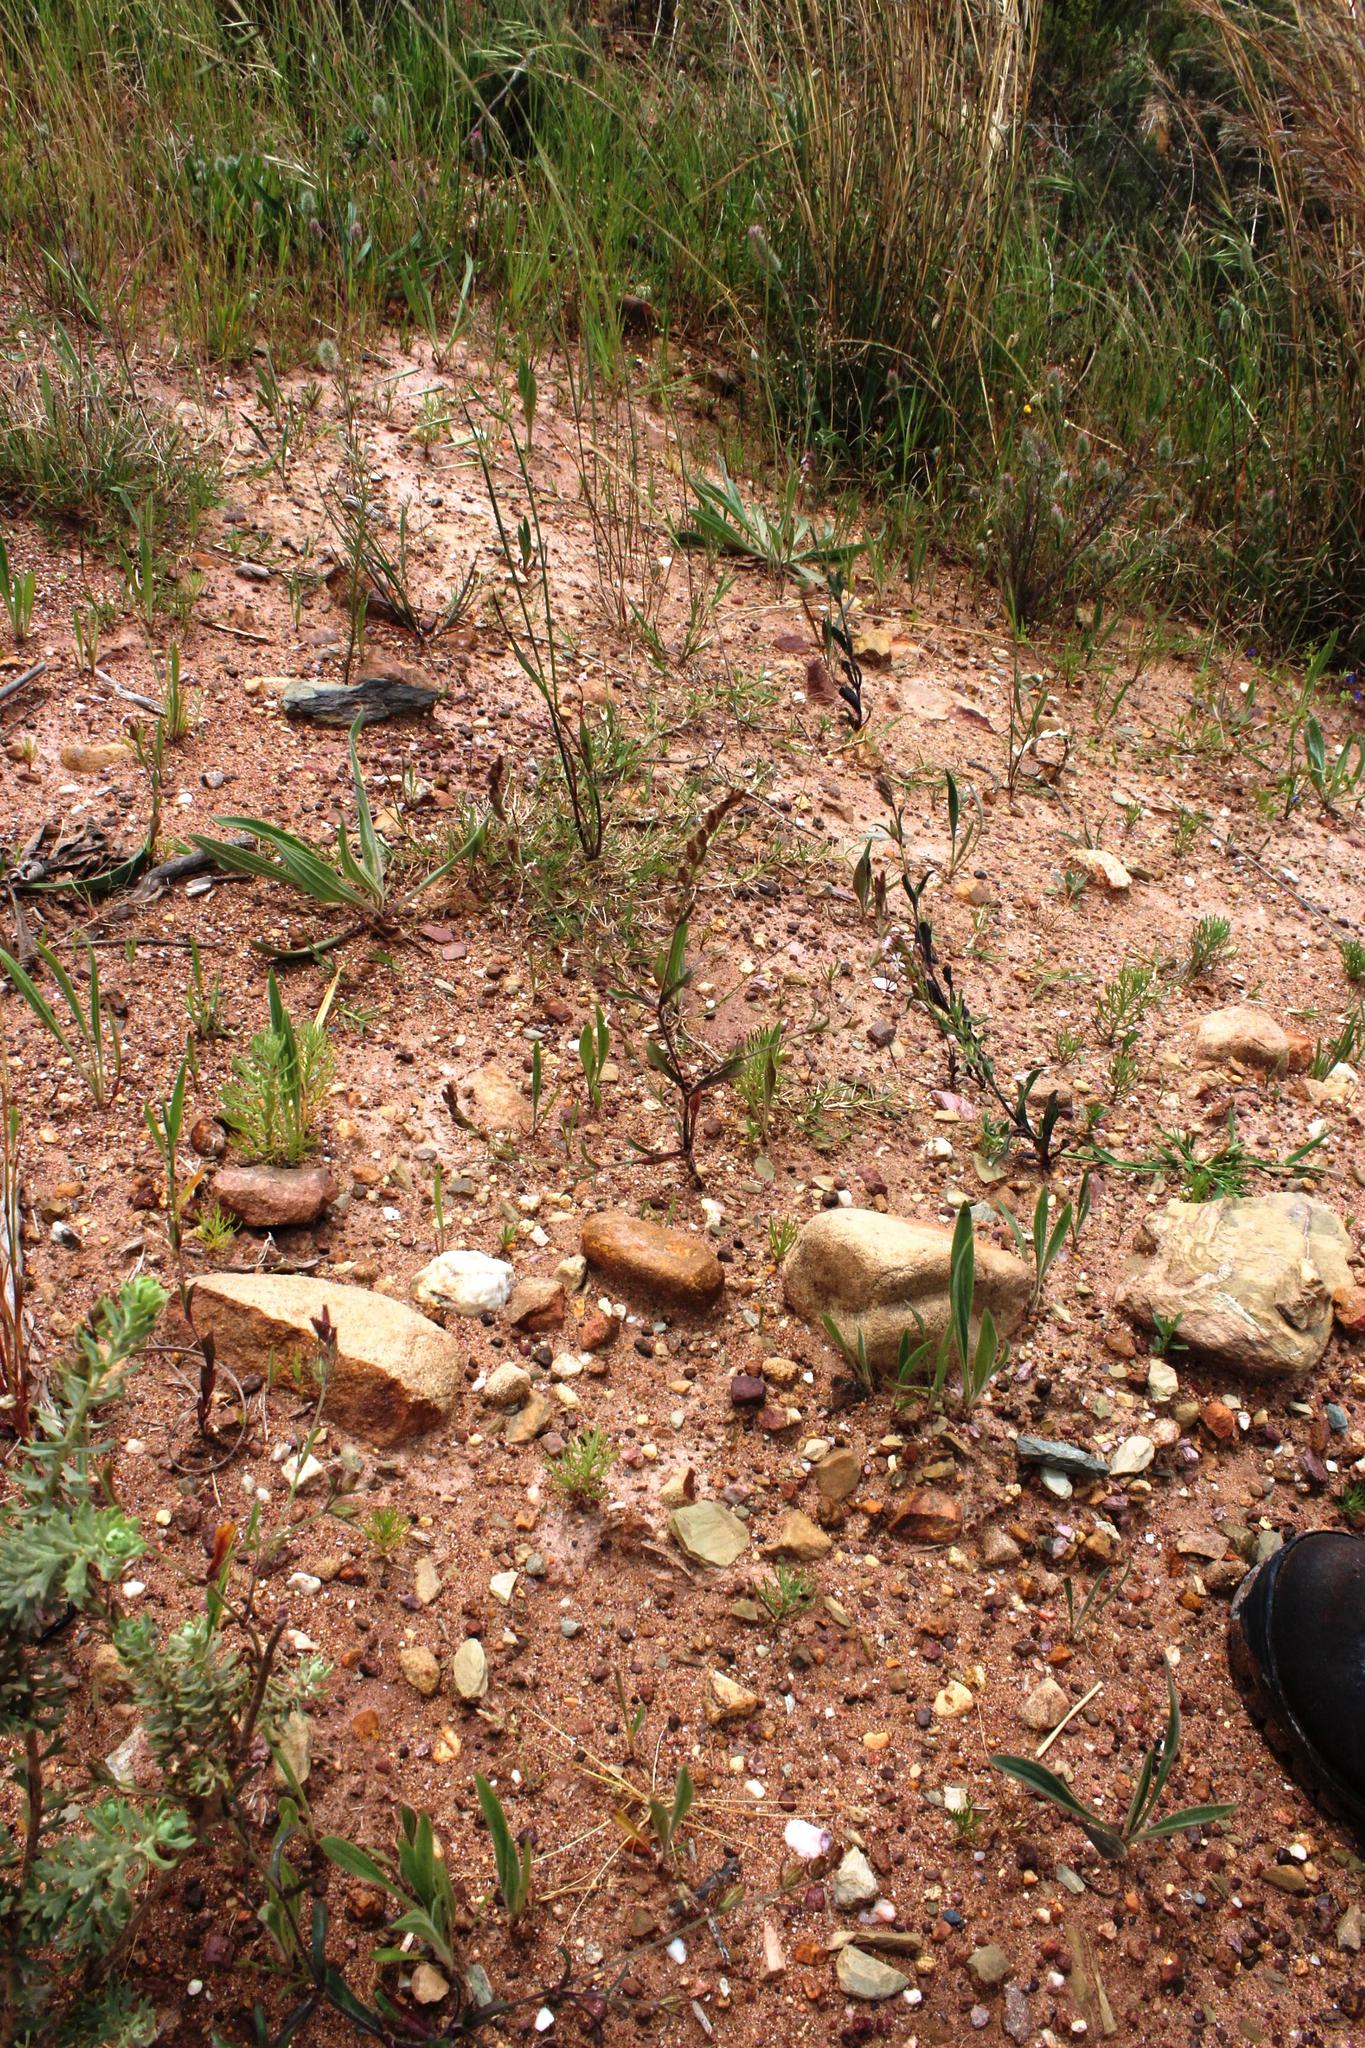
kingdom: Plantae
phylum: Tracheophyta
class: Magnoliopsida
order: Caryophyllales
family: Caryophyllaceae
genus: Silene
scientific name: Silene gallica
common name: Small-flowered catchfly
